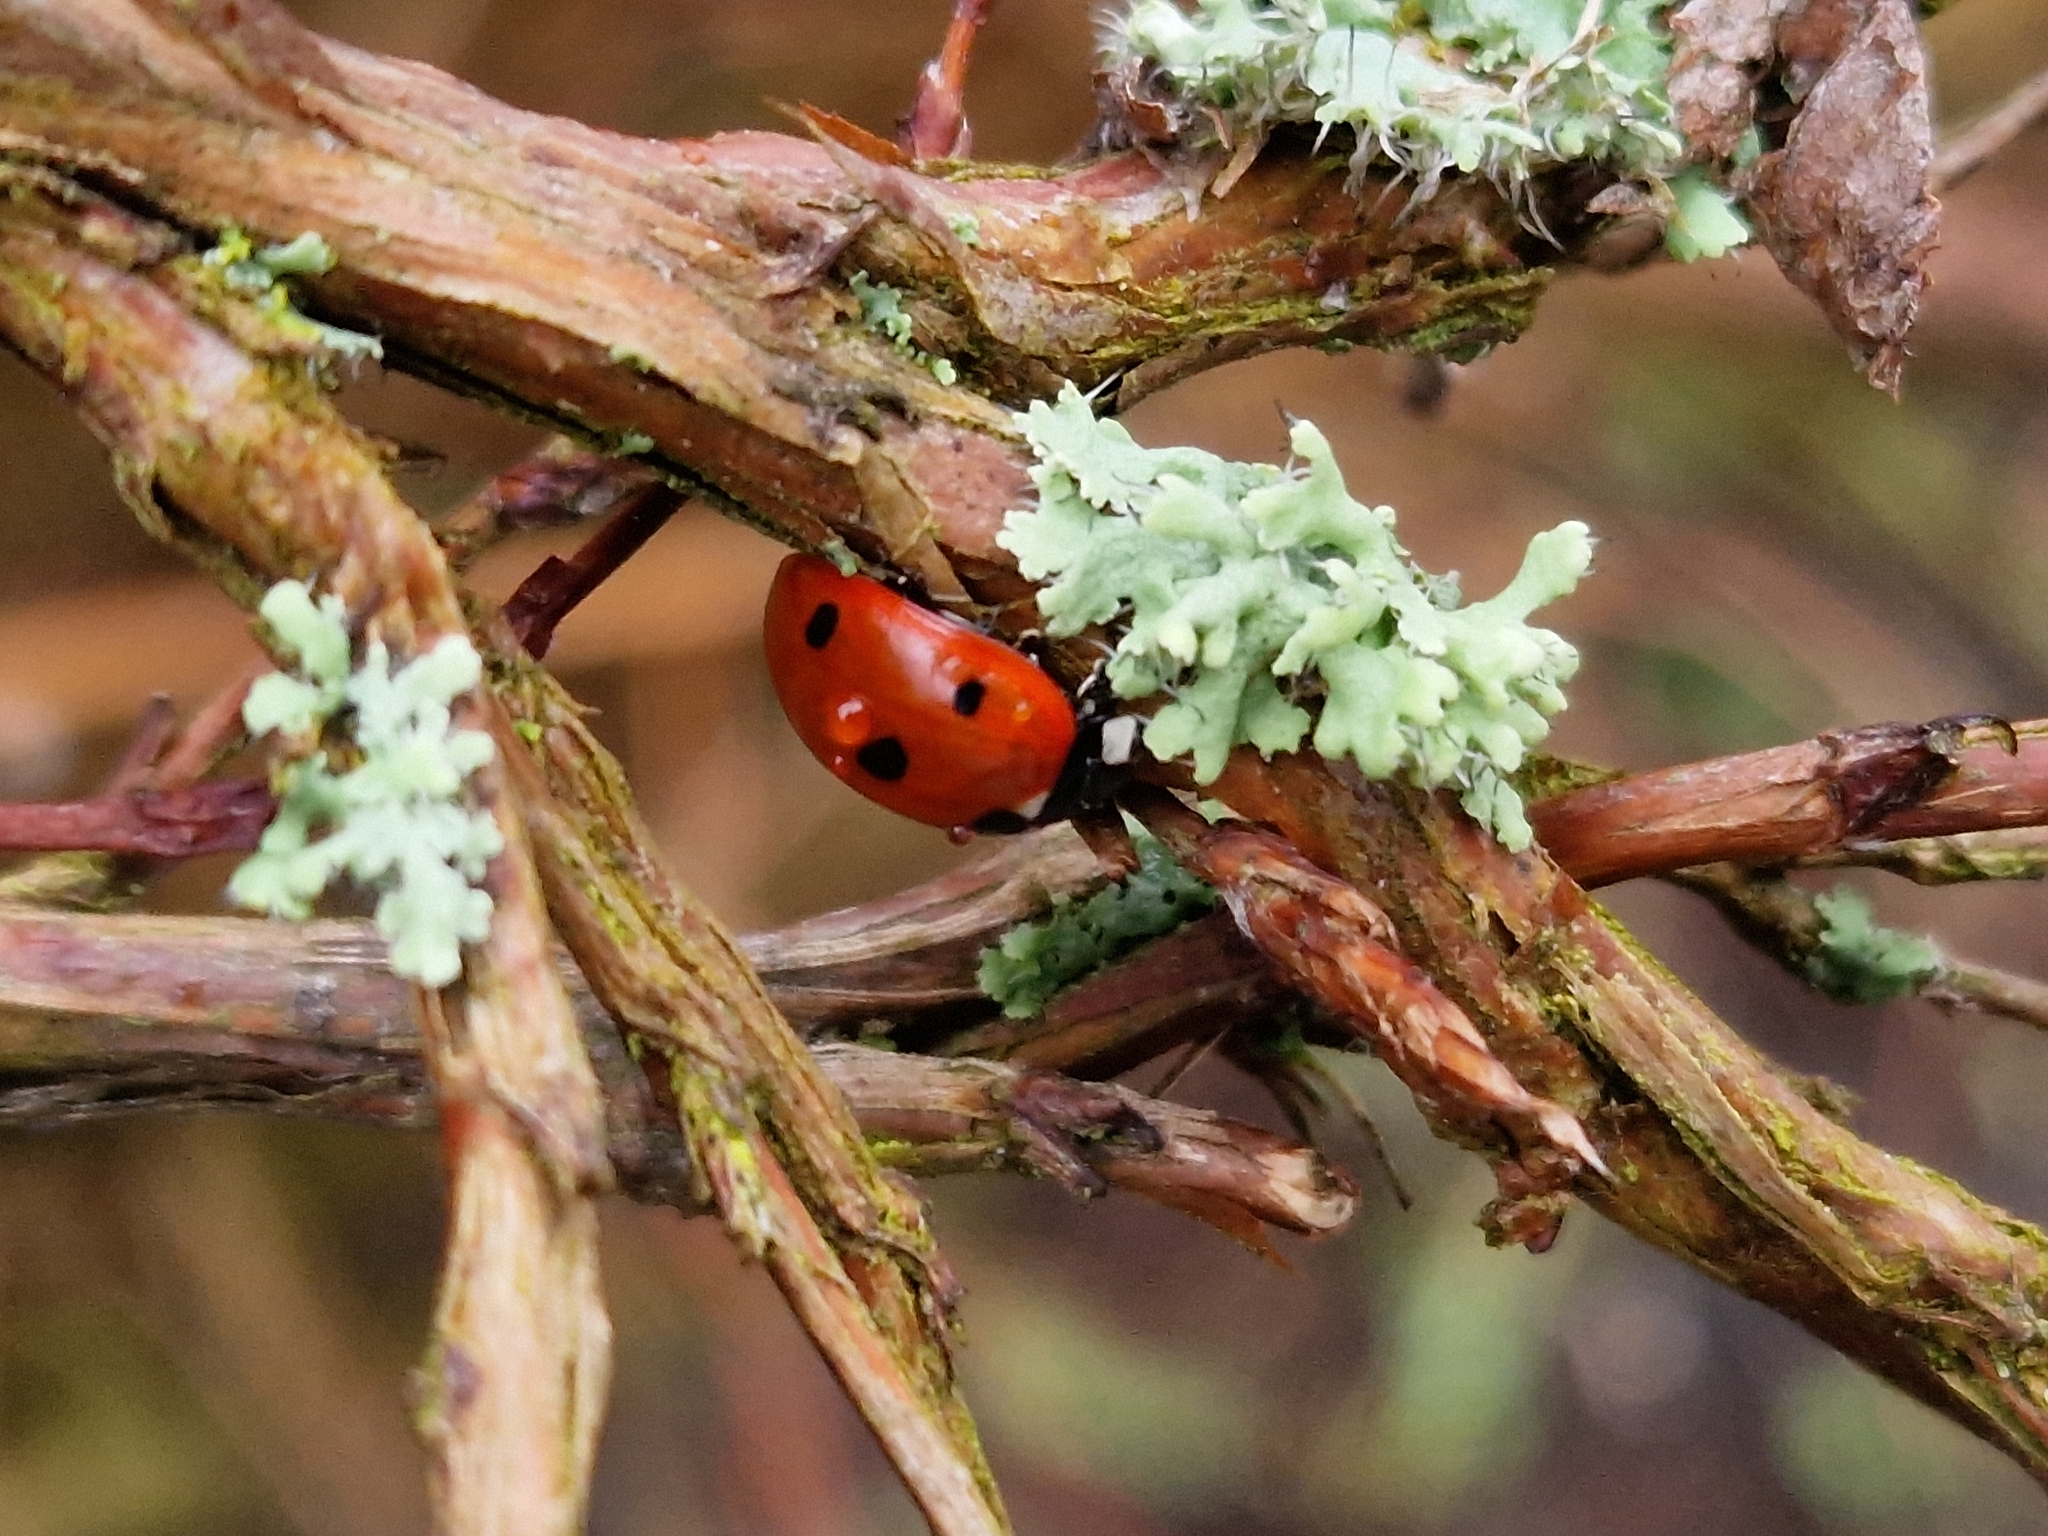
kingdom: Animalia
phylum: Arthropoda
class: Insecta
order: Coleoptera
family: Coccinellidae
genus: Coccinella
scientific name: Coccinella septempunctata
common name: Sevenspotted lady beetle
